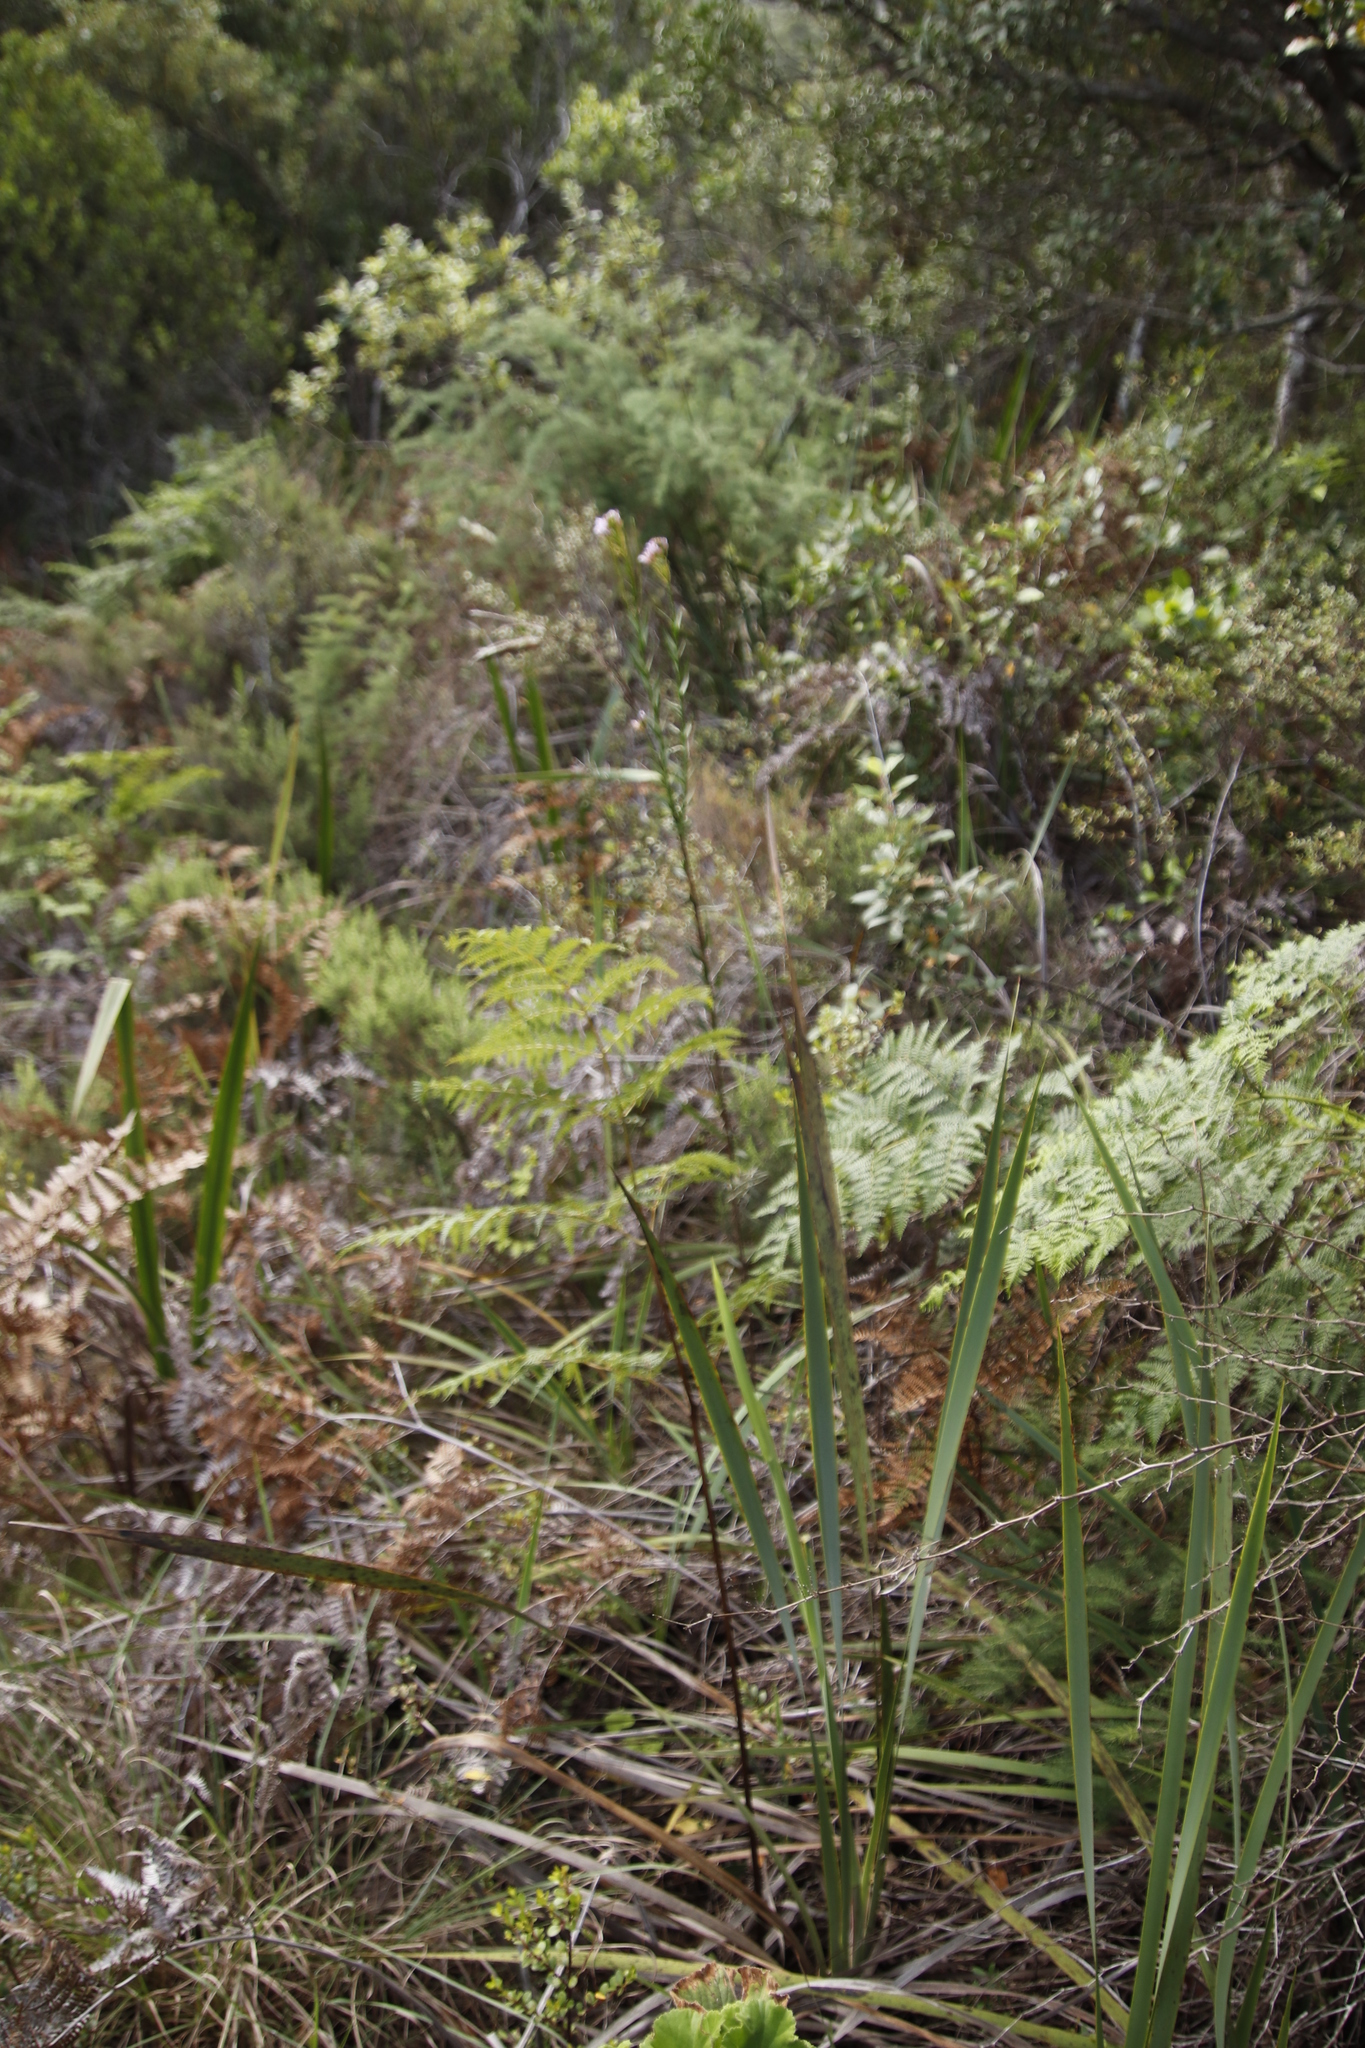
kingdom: Plantae
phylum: Tracheophyta
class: Magnoliopsida
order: Brassicales
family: Brassicaceae
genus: Heliophila
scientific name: Heliophila callosa
